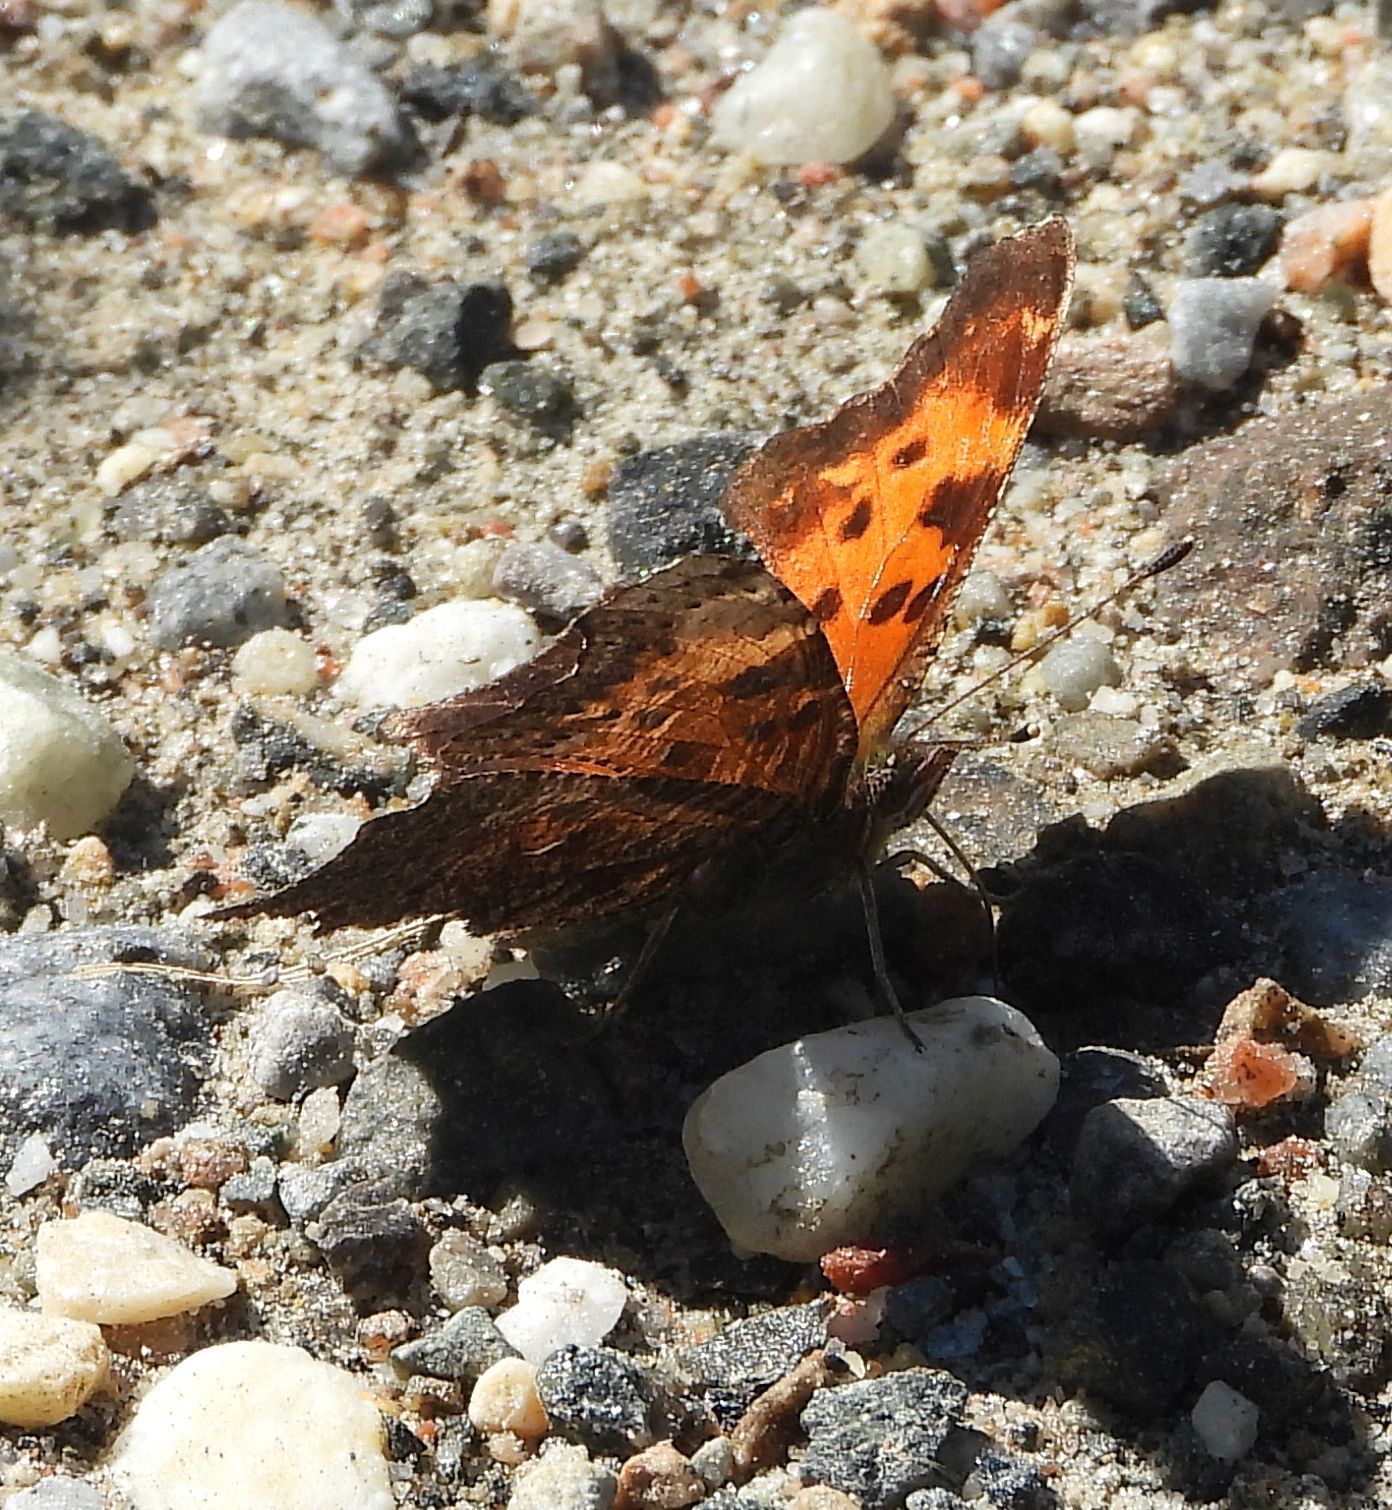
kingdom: Animalia
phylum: Arthropoda
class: Insecta
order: Lepidoptera
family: Nymphalidae
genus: Polygonia
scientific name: Polygonia progne
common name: Gray comma
